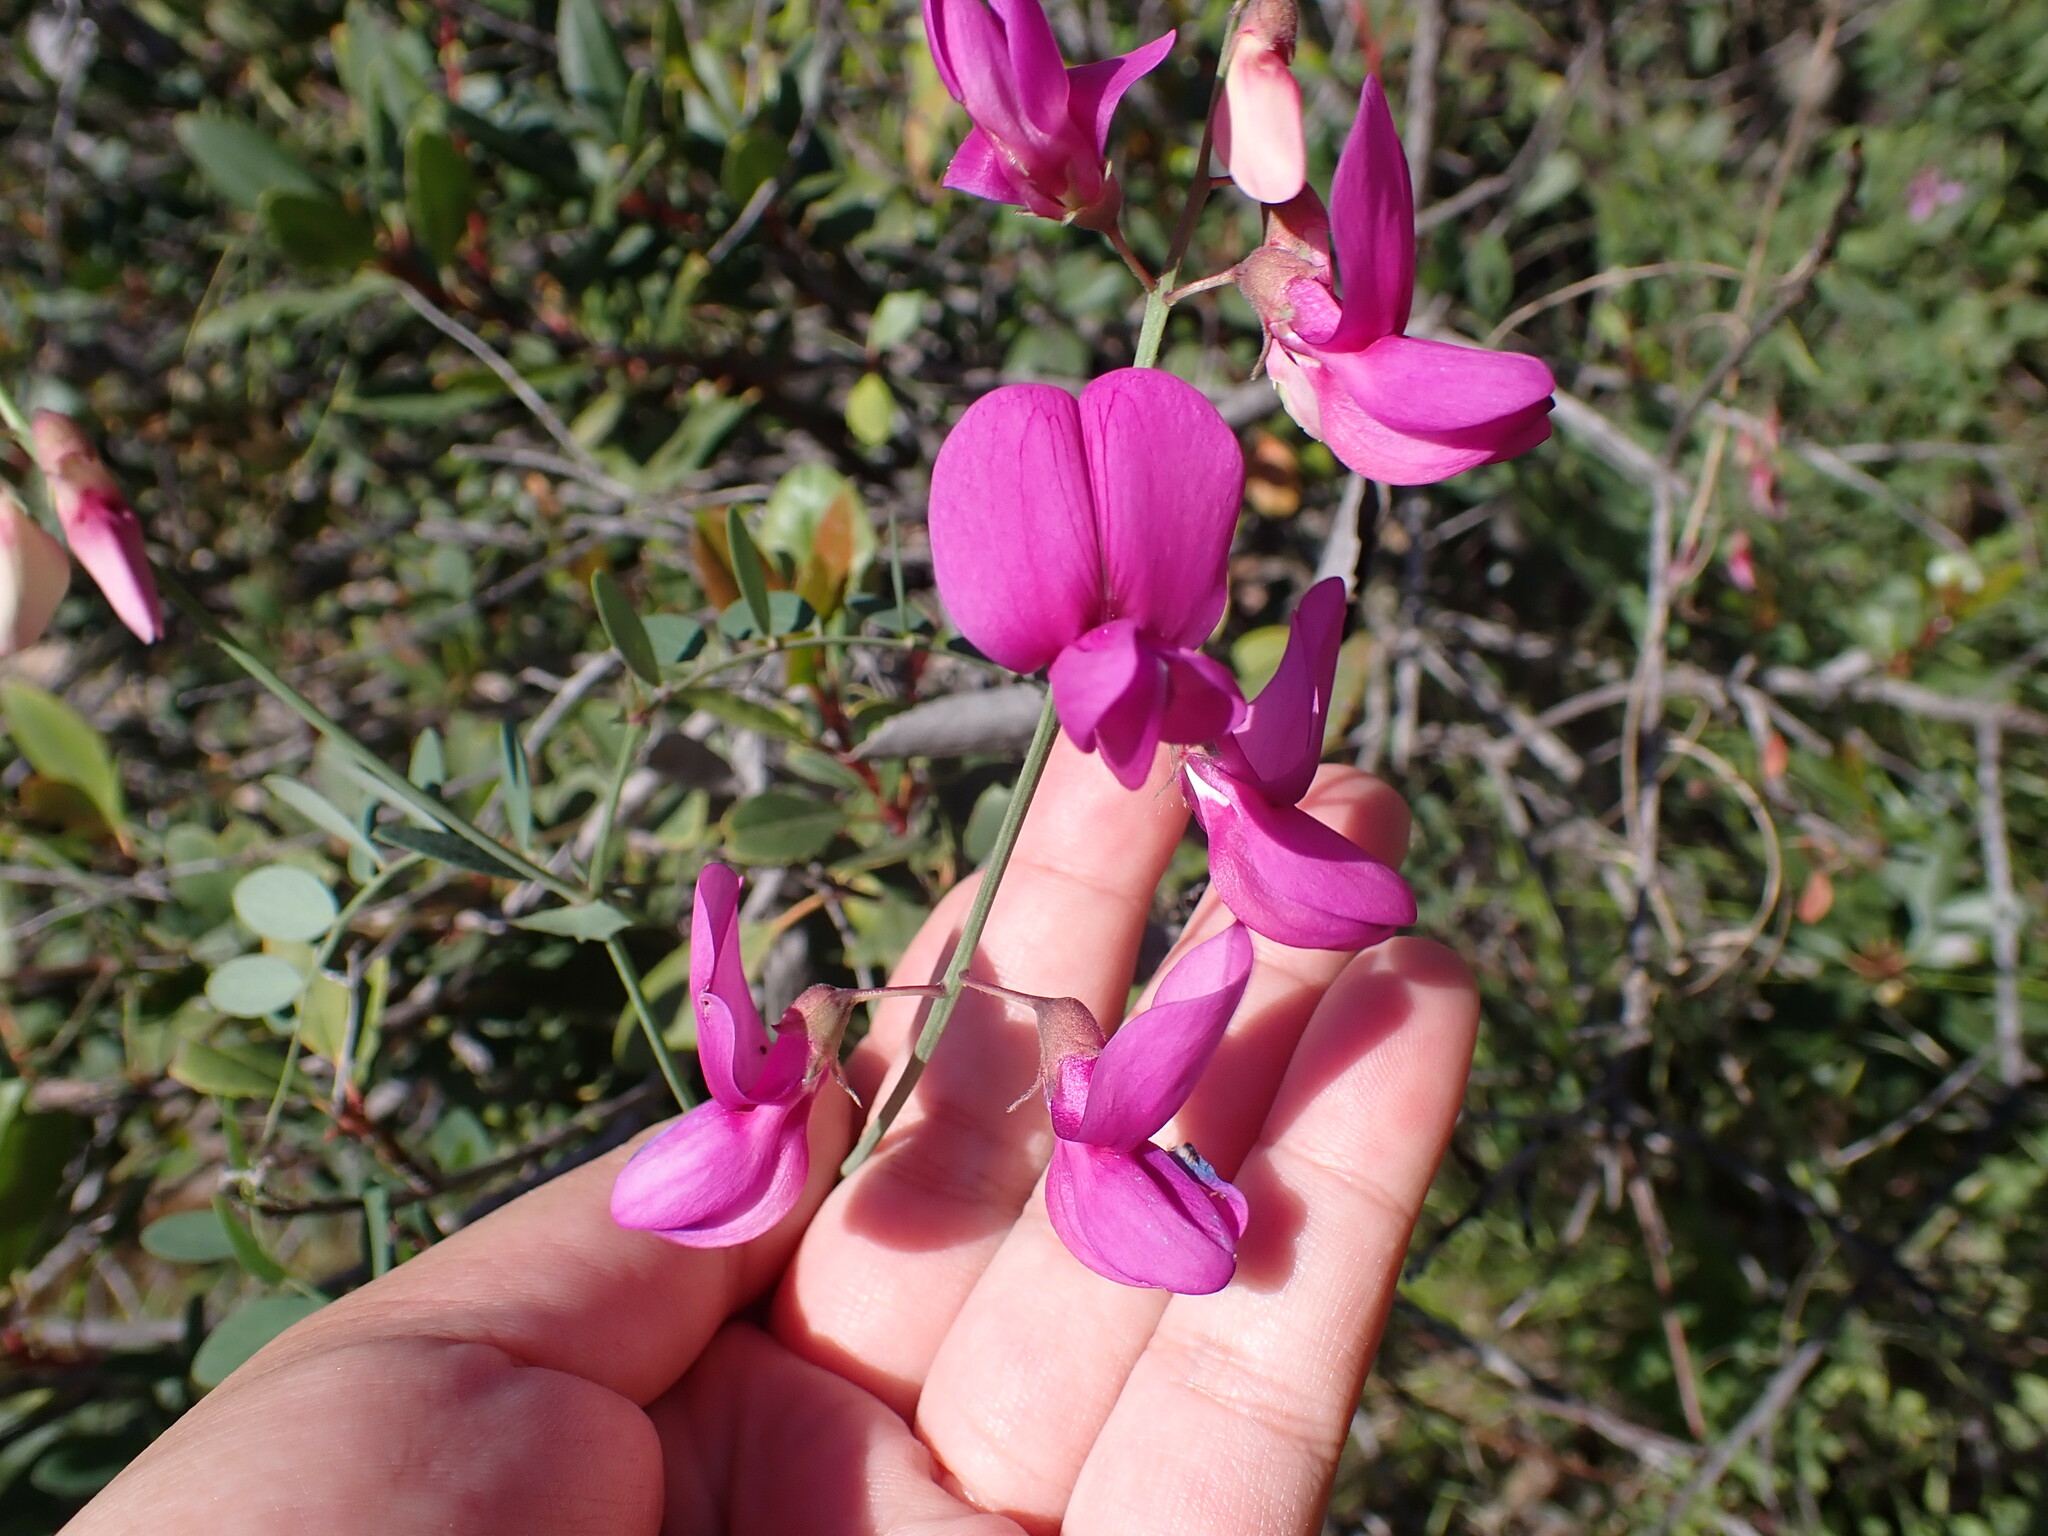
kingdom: Plantae
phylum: Tracheophyta
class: Magnoliopsida
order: Fabales
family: Fabaceae
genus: Lathyrus
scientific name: Lathyrus vestitus
